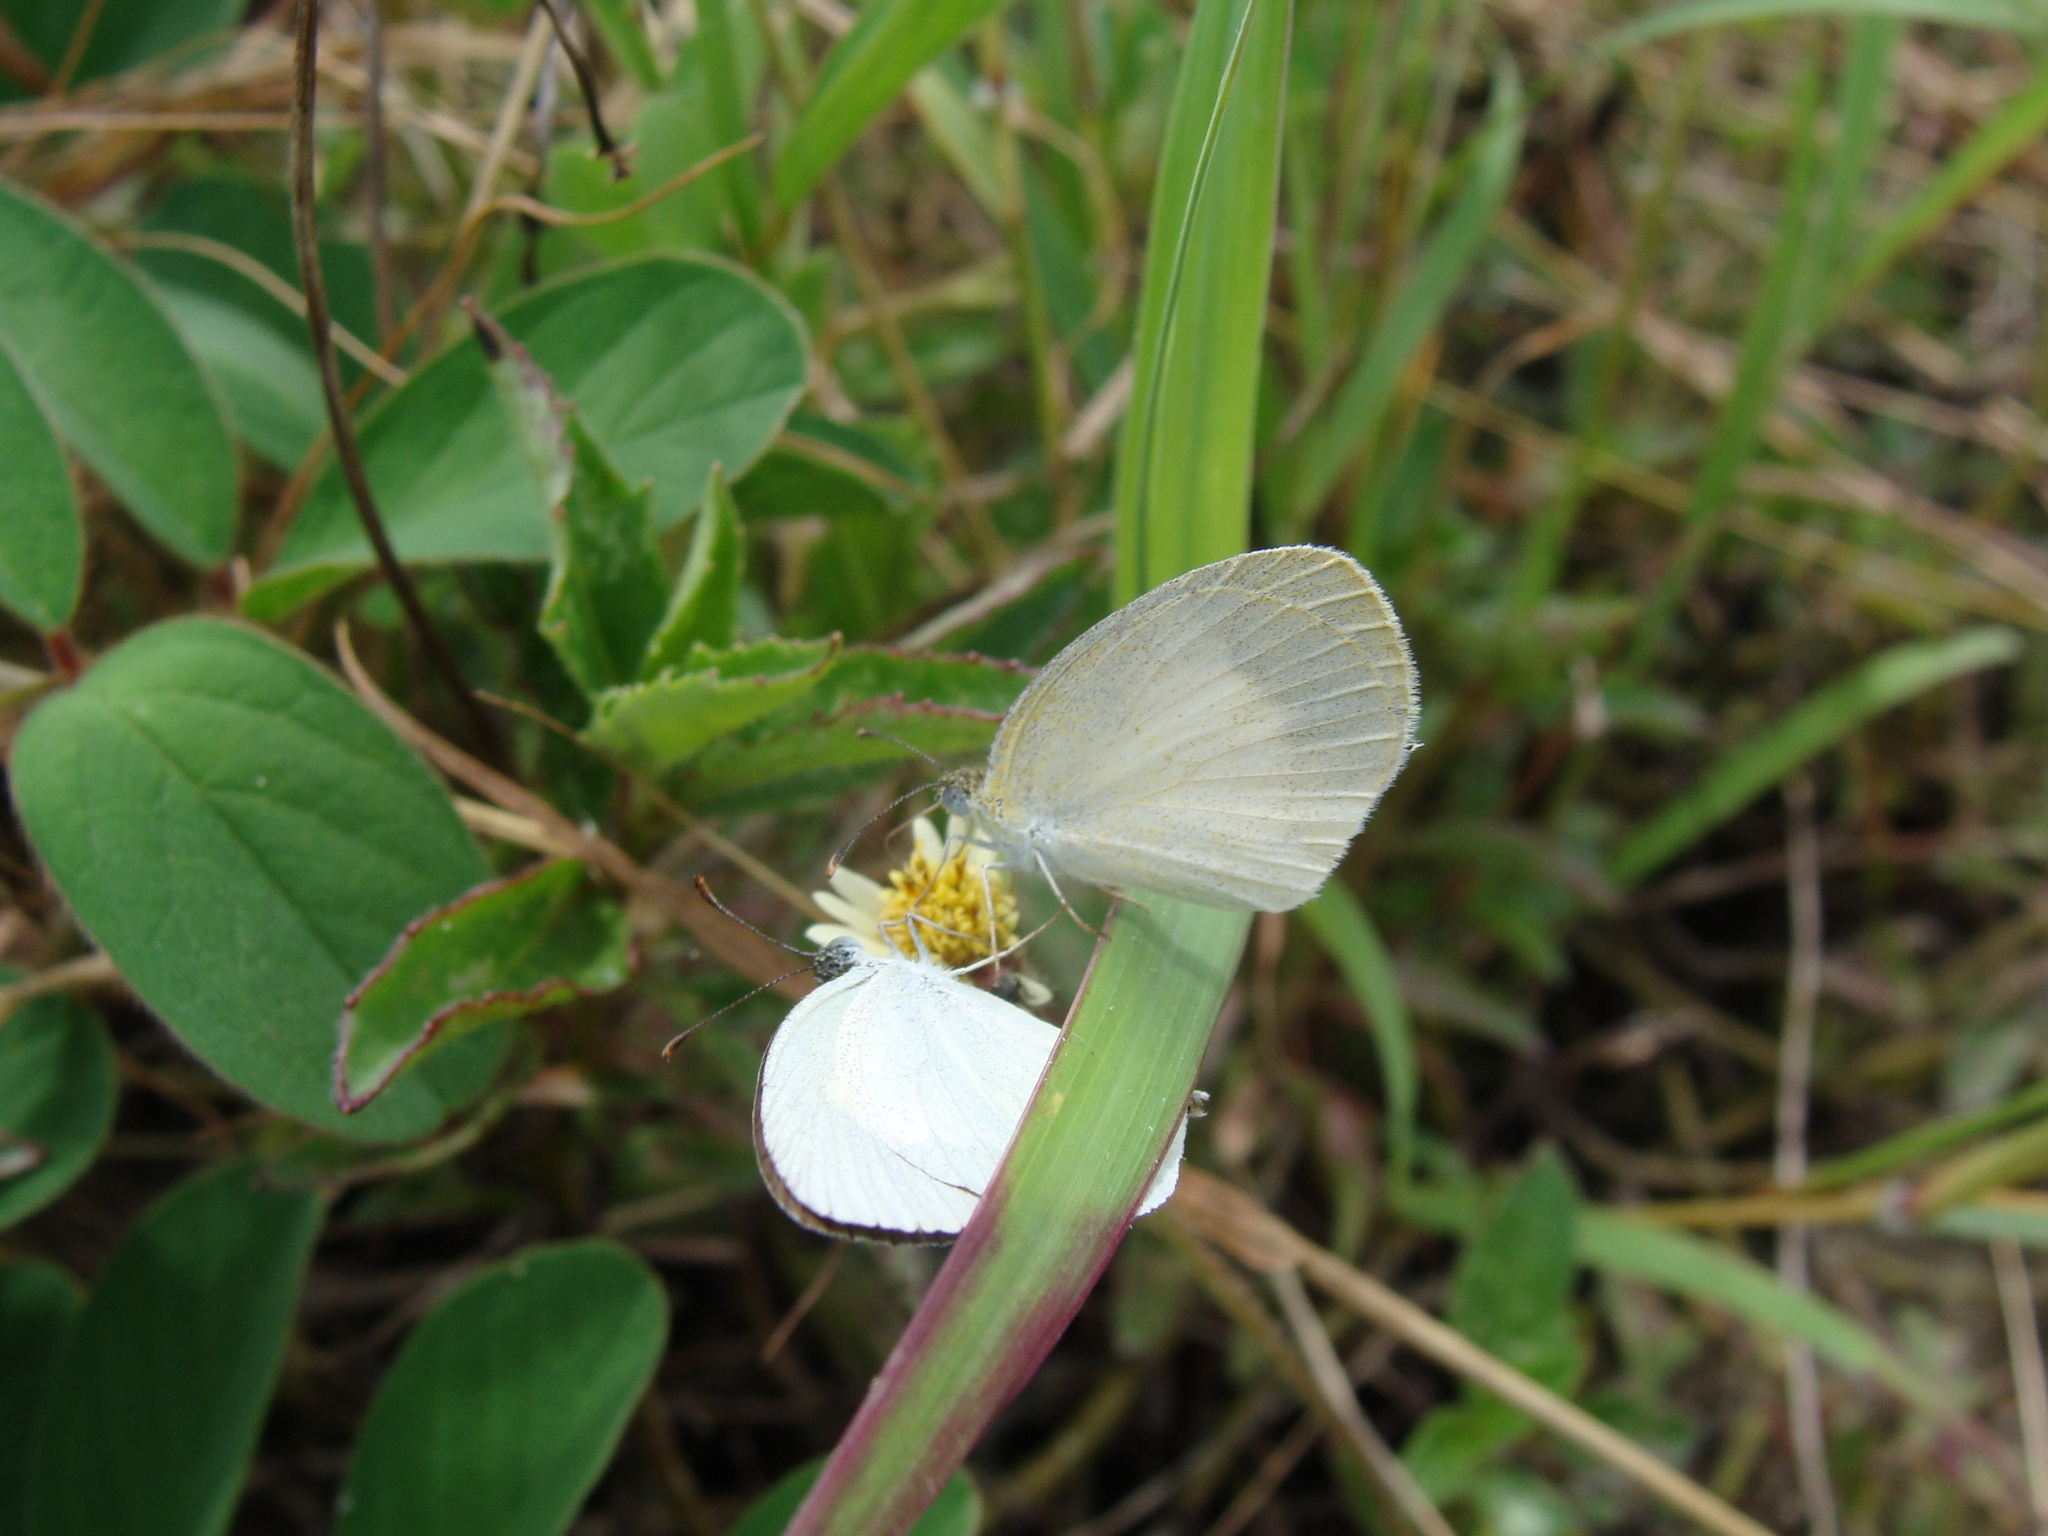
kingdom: Animalia
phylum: Arthropoda
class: Insecta
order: Lepidoptera
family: Pieridae
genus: Eurema
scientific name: Eurema daira
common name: Barred sulphur
